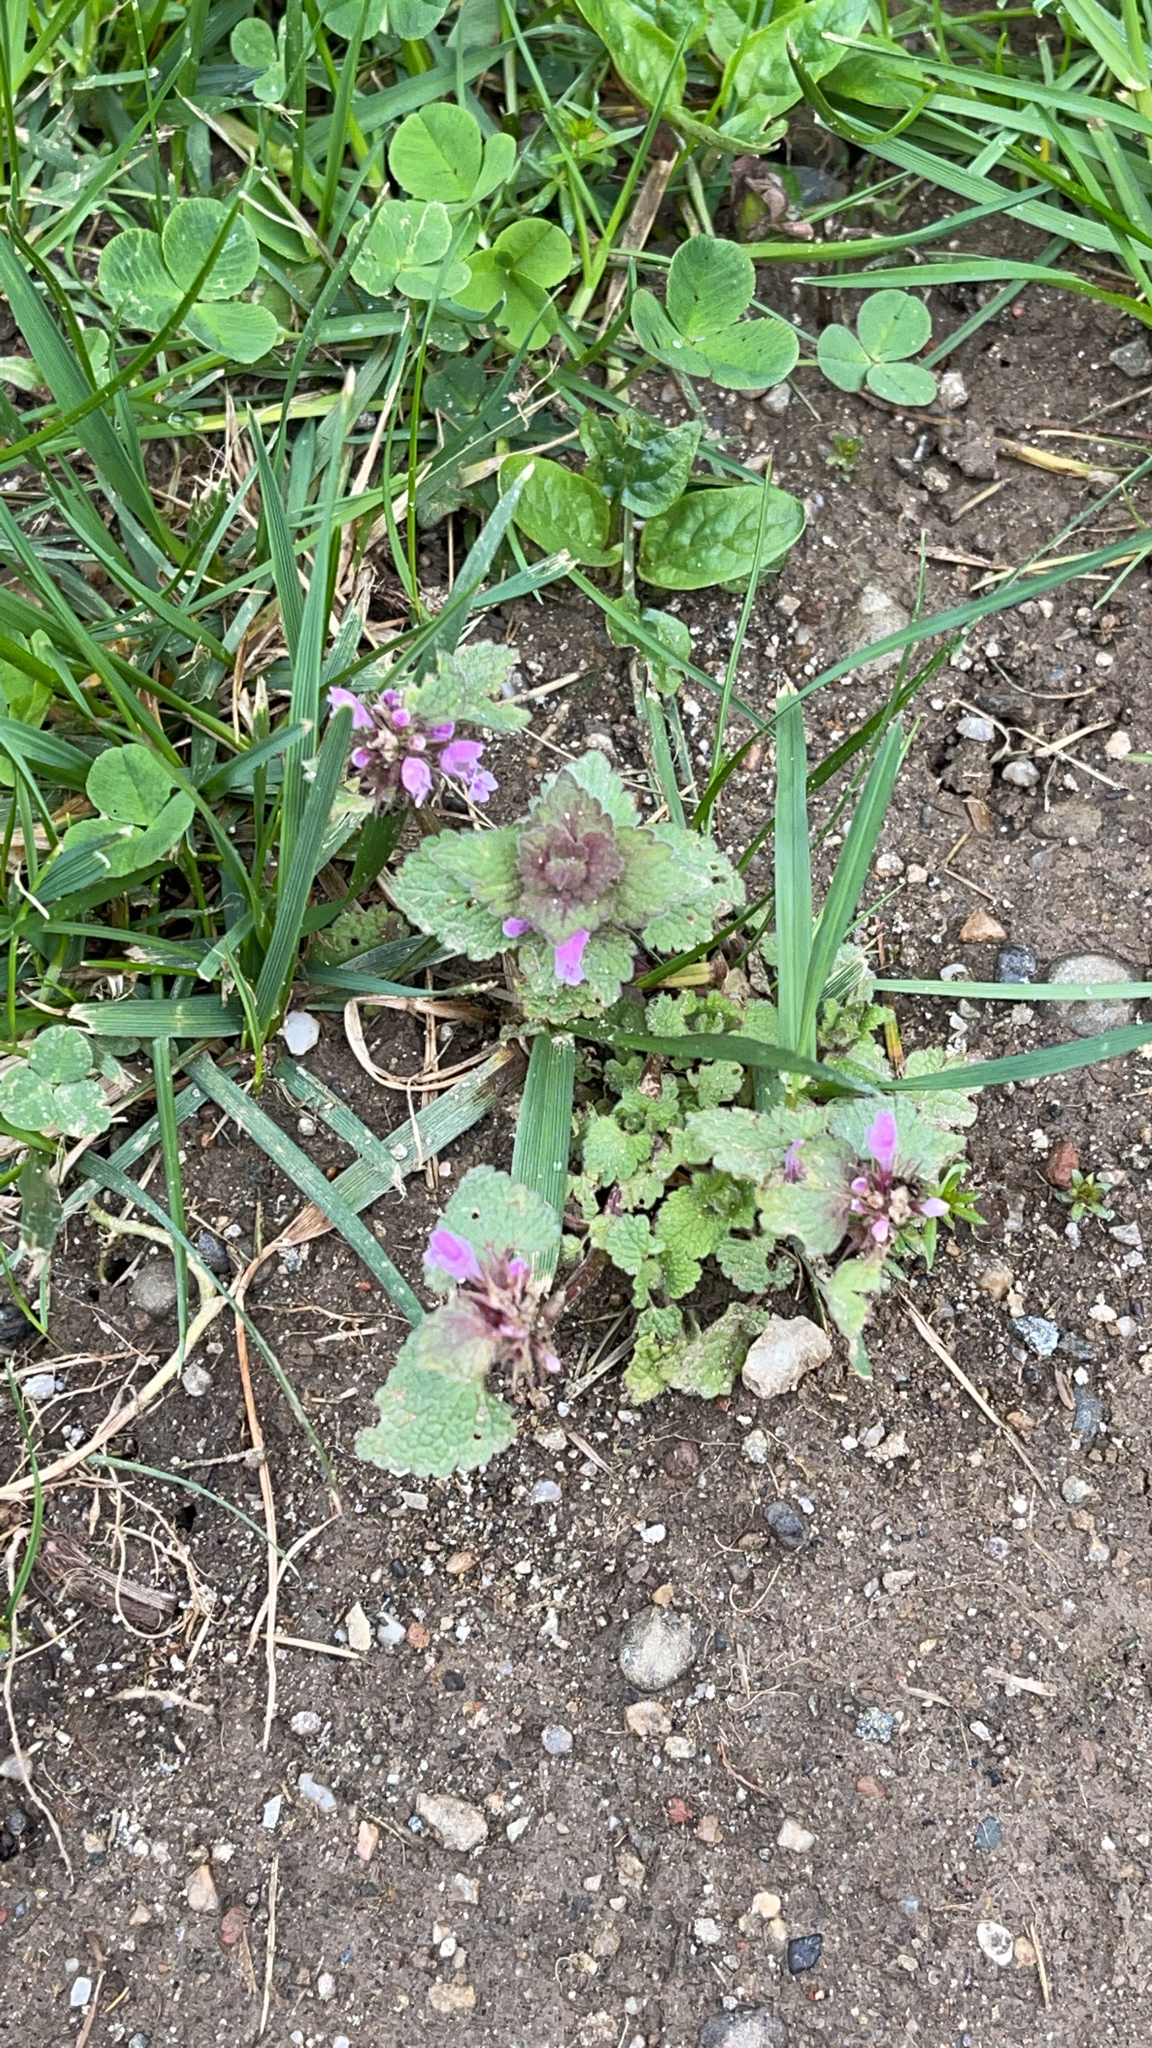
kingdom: Plantae
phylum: Tracheophyta
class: Magnoliopsida
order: Lamiales
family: Lamiaceae
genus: Lamium
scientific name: Lamium purpureum
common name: Red dead-nettle
